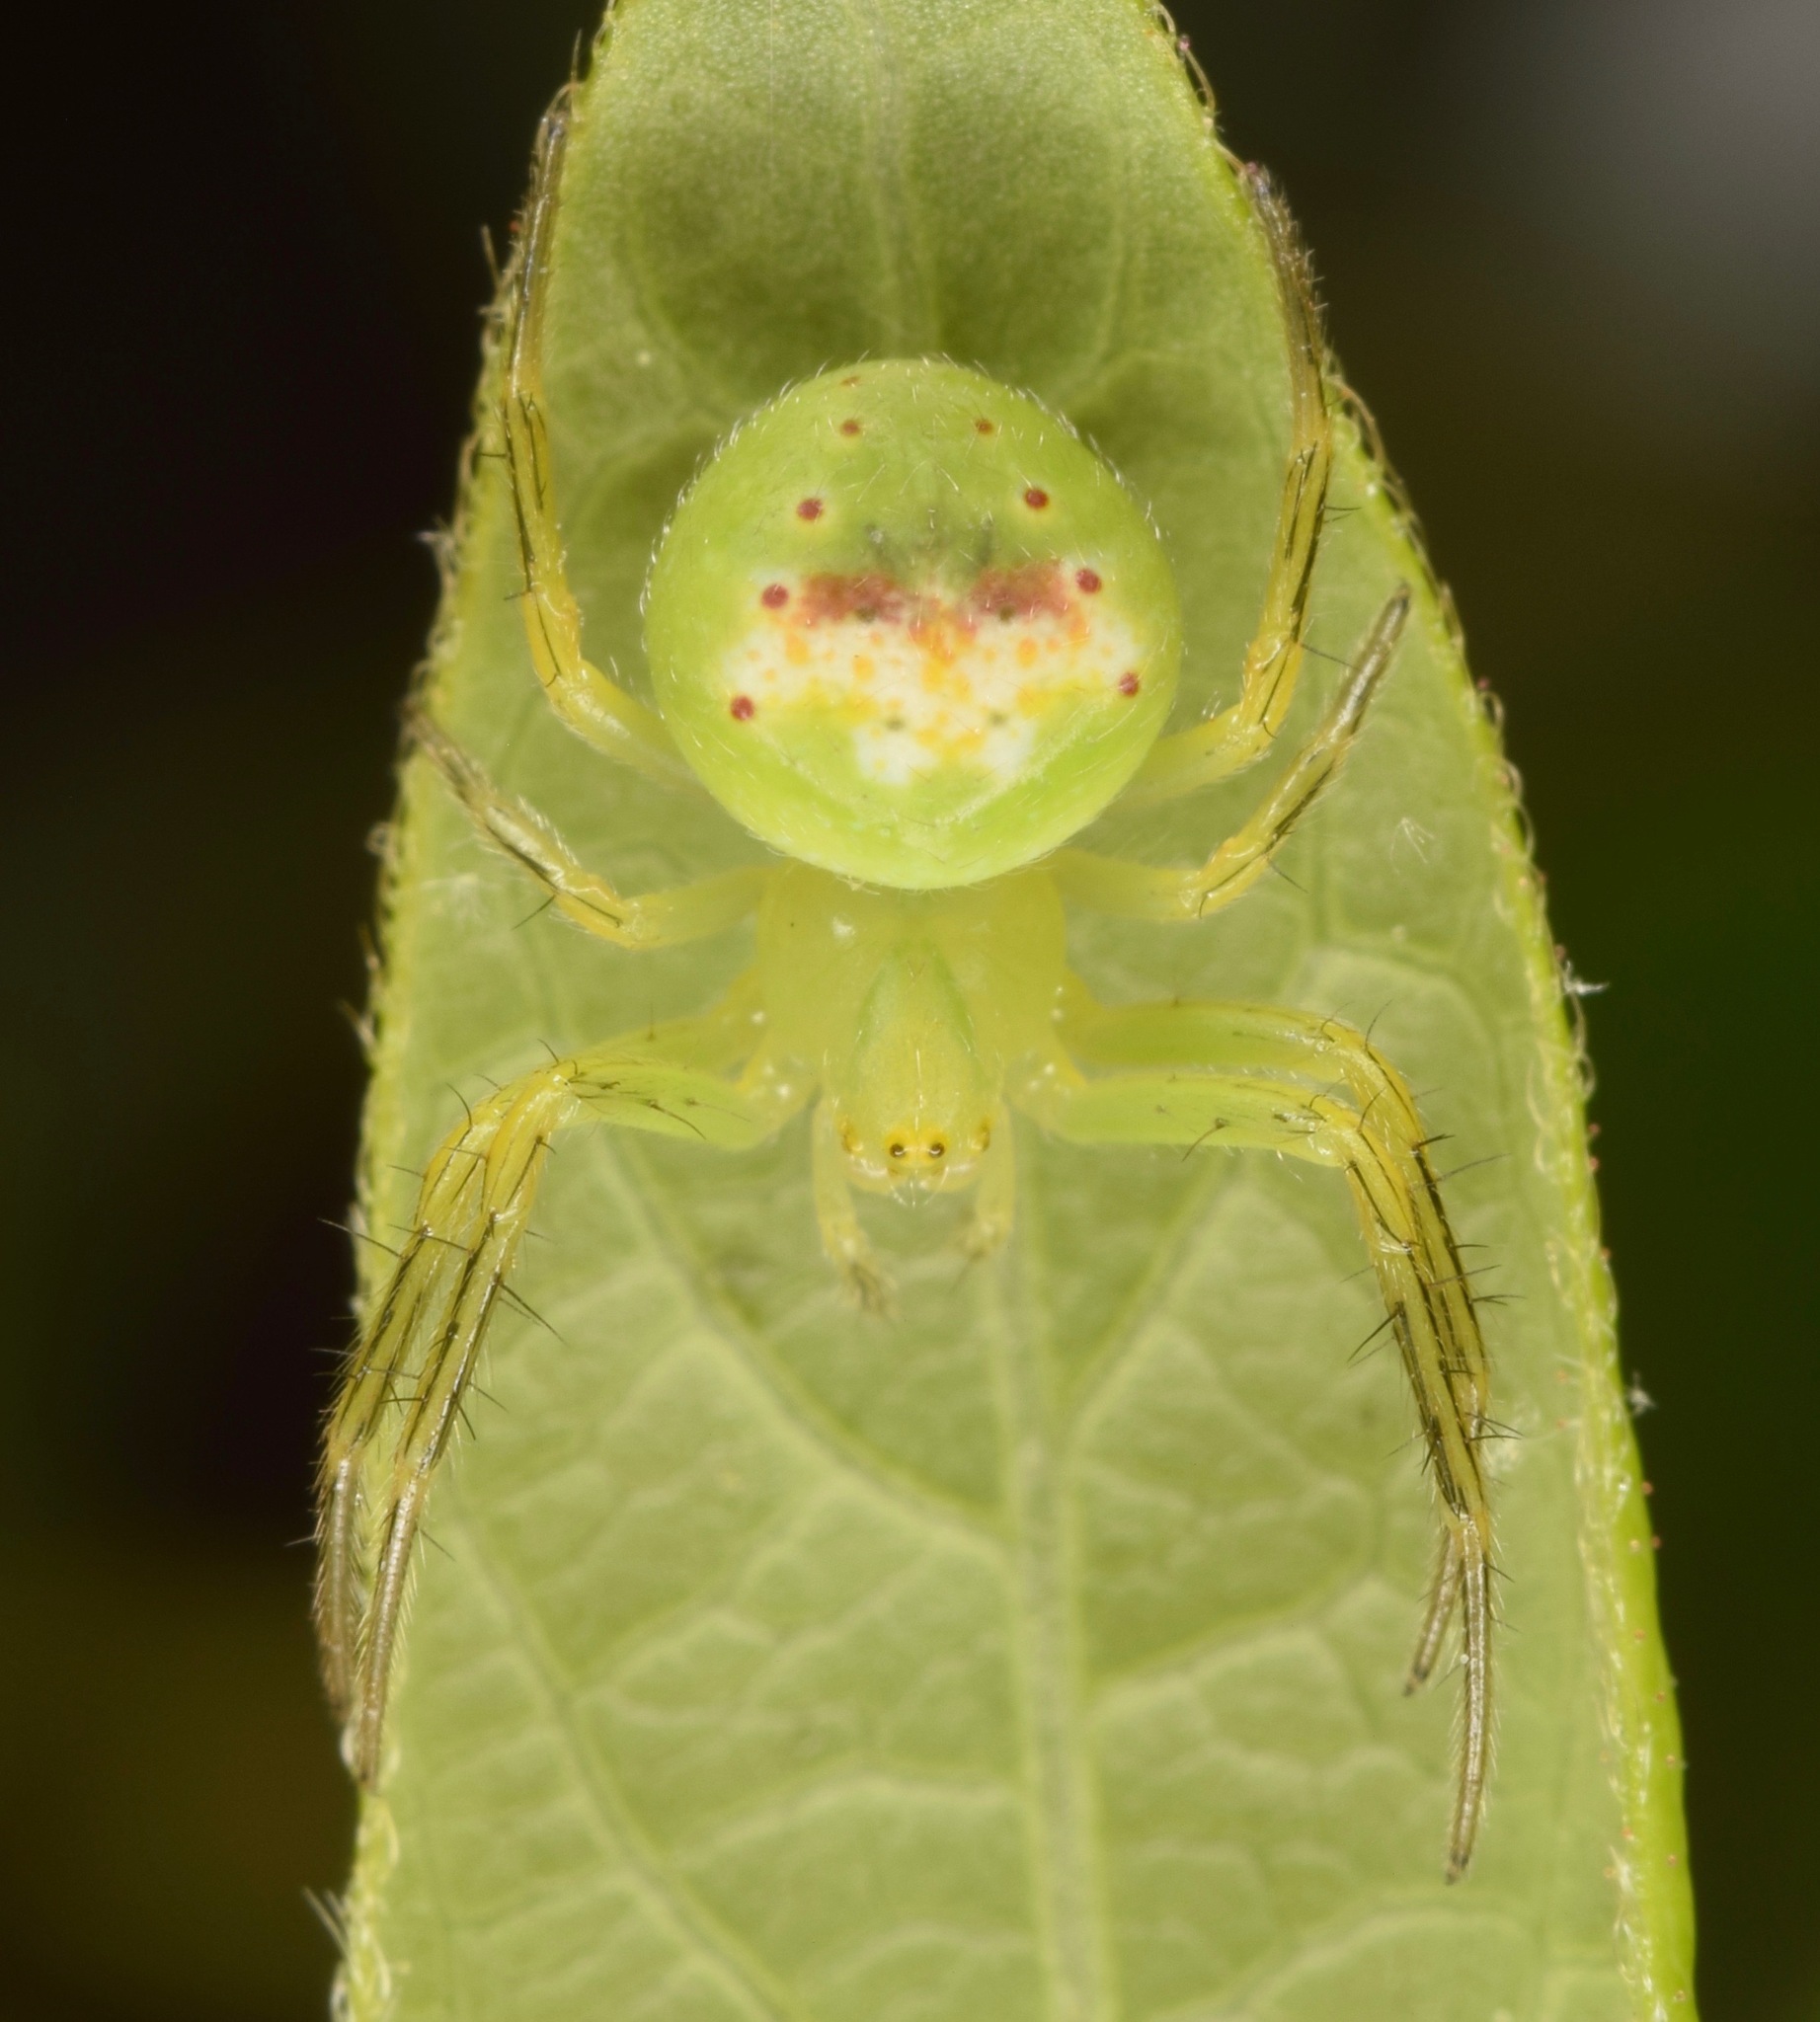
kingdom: Animalia
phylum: Arthropoda
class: Arachnida
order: Araneae
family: Araneidae
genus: Araneus
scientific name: Araneus bonsallae
